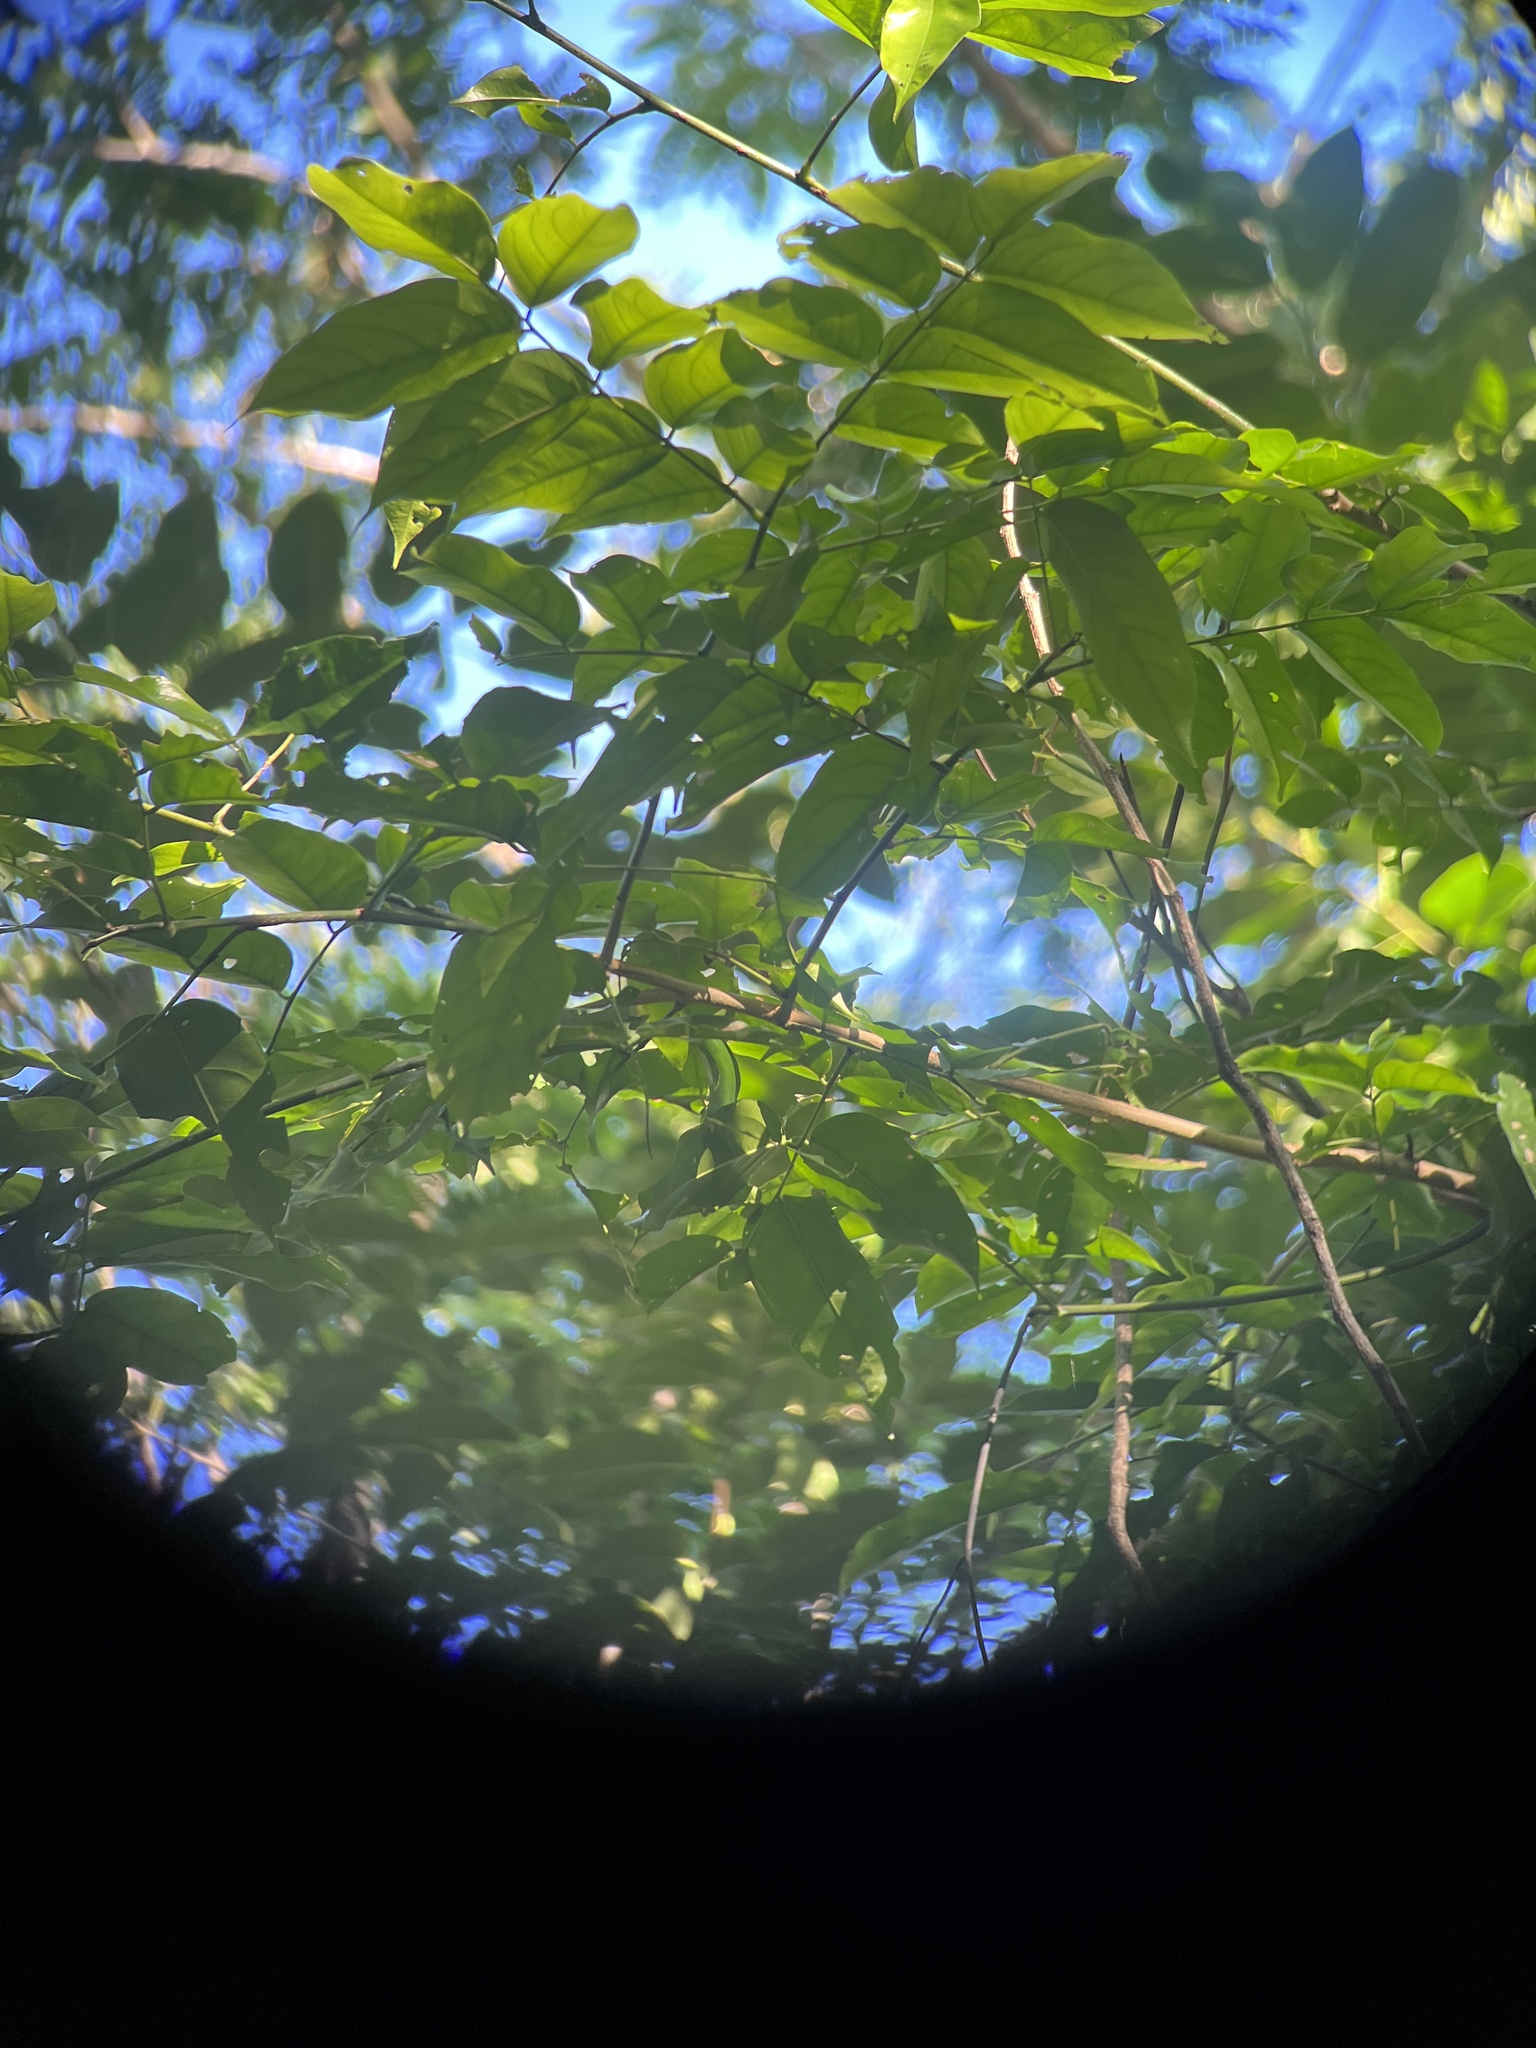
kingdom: Plantae
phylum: Tracheophyta
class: Magnoliopsida
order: Fabales
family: Fabaceae
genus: Pterocarpus
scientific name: Pterocarpus officinalis
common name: Bloodwood
